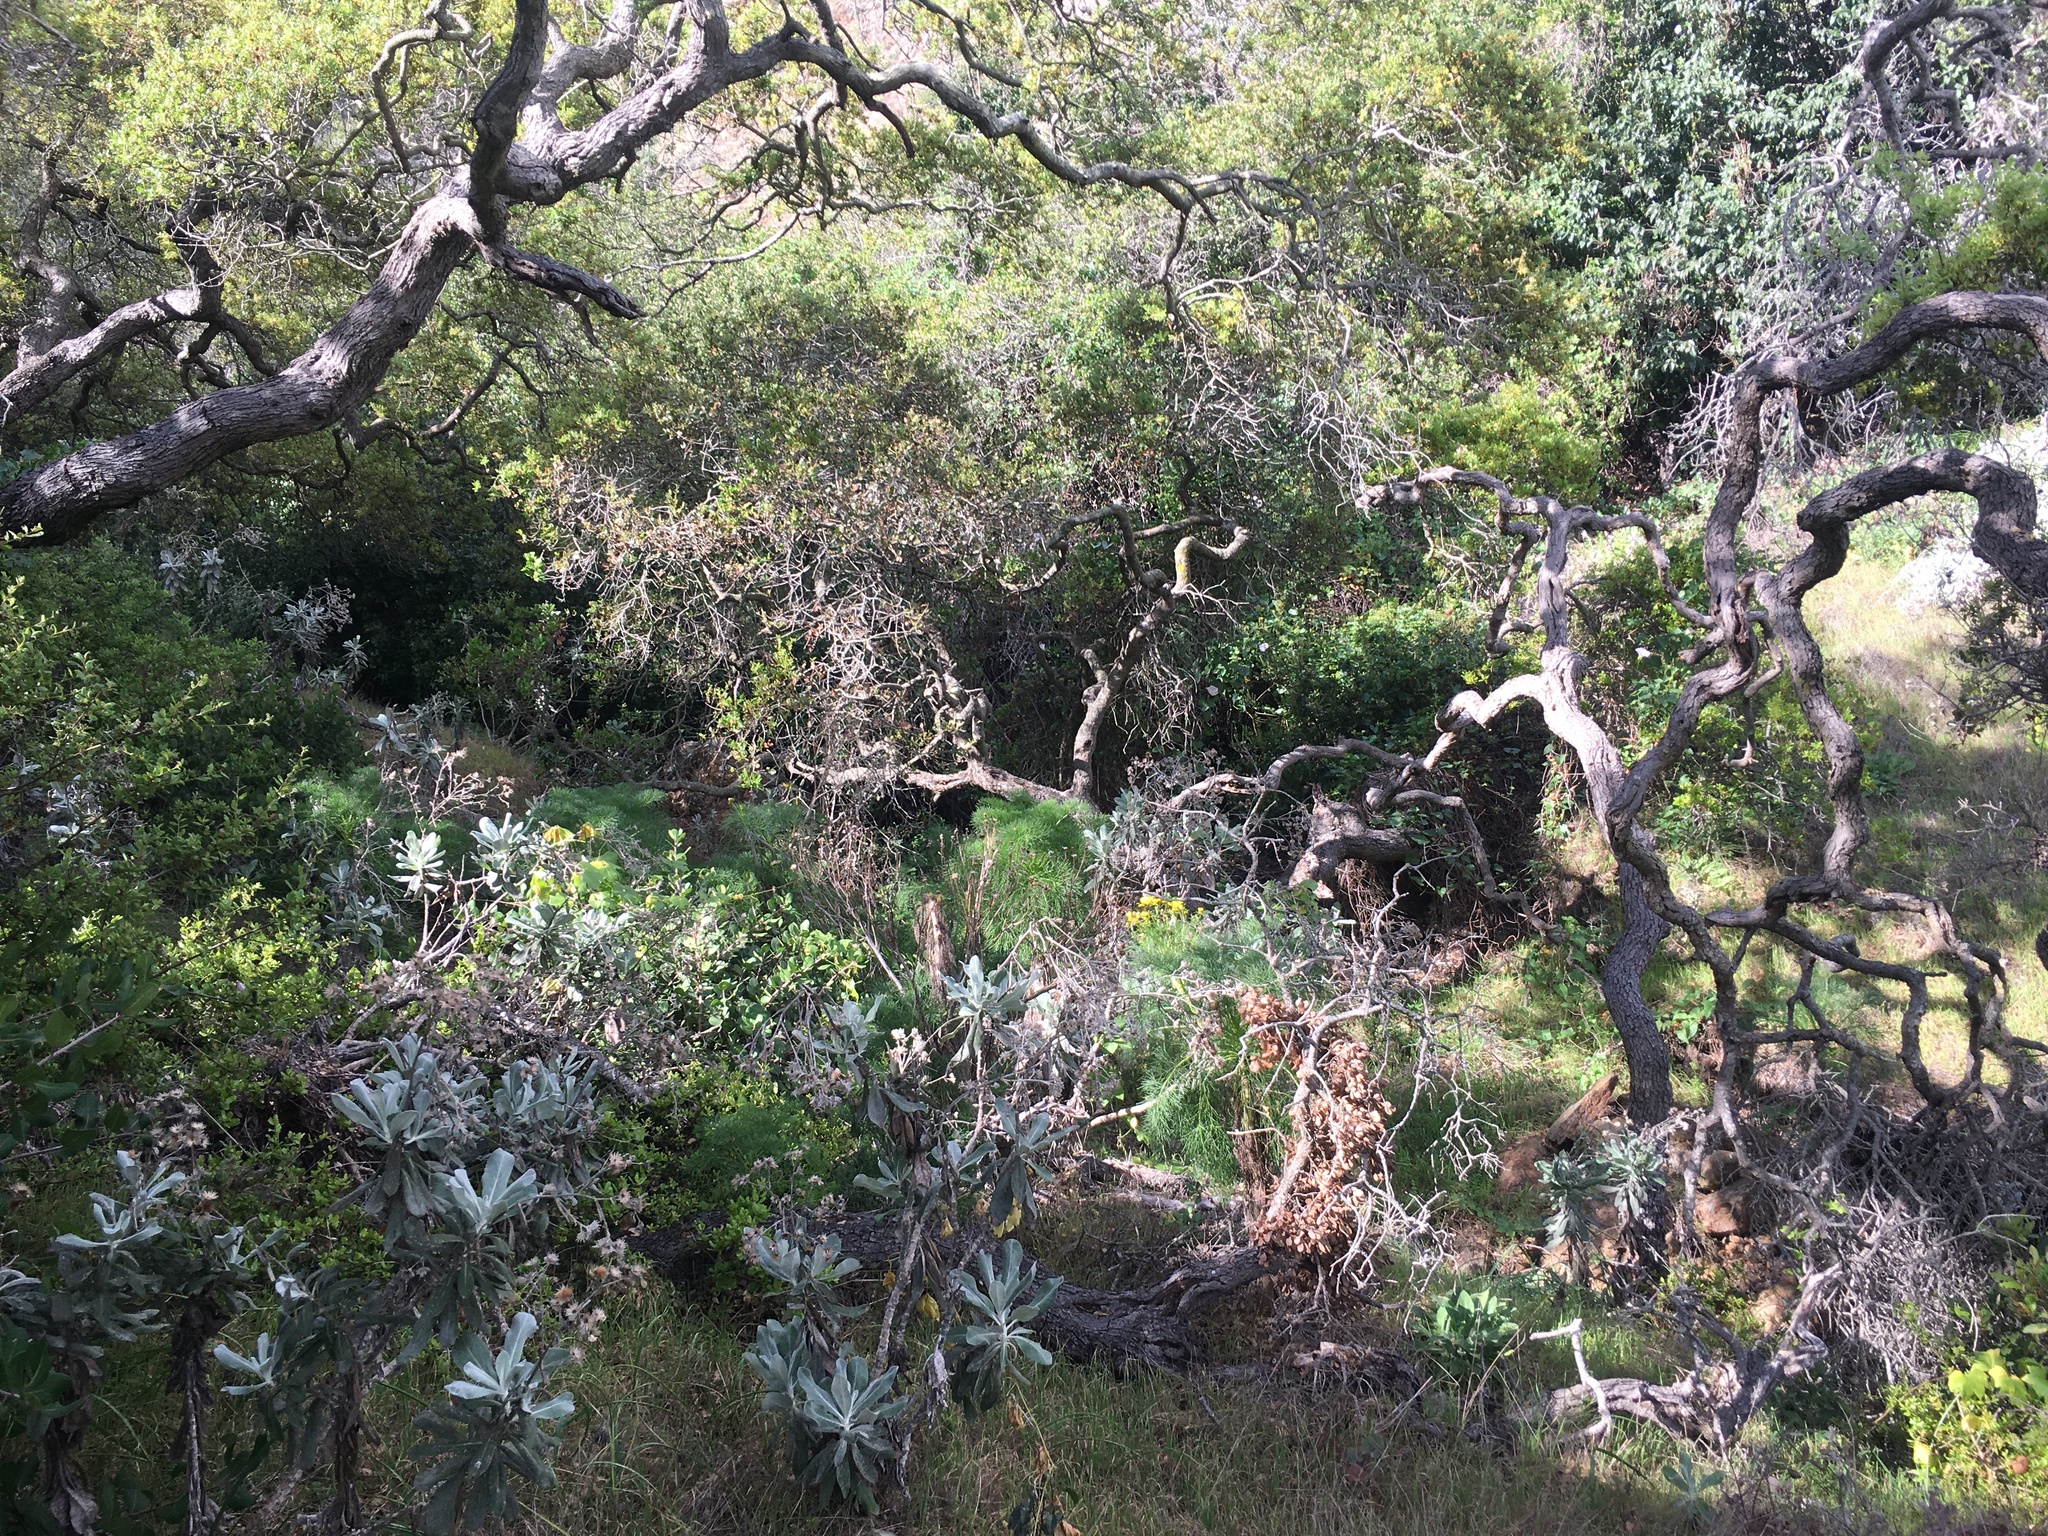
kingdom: Plantae
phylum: Tracheophyta
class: Magnoliopsida
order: Asterales
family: Asteraceae
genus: Hazardia
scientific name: Hazardia detonsa
